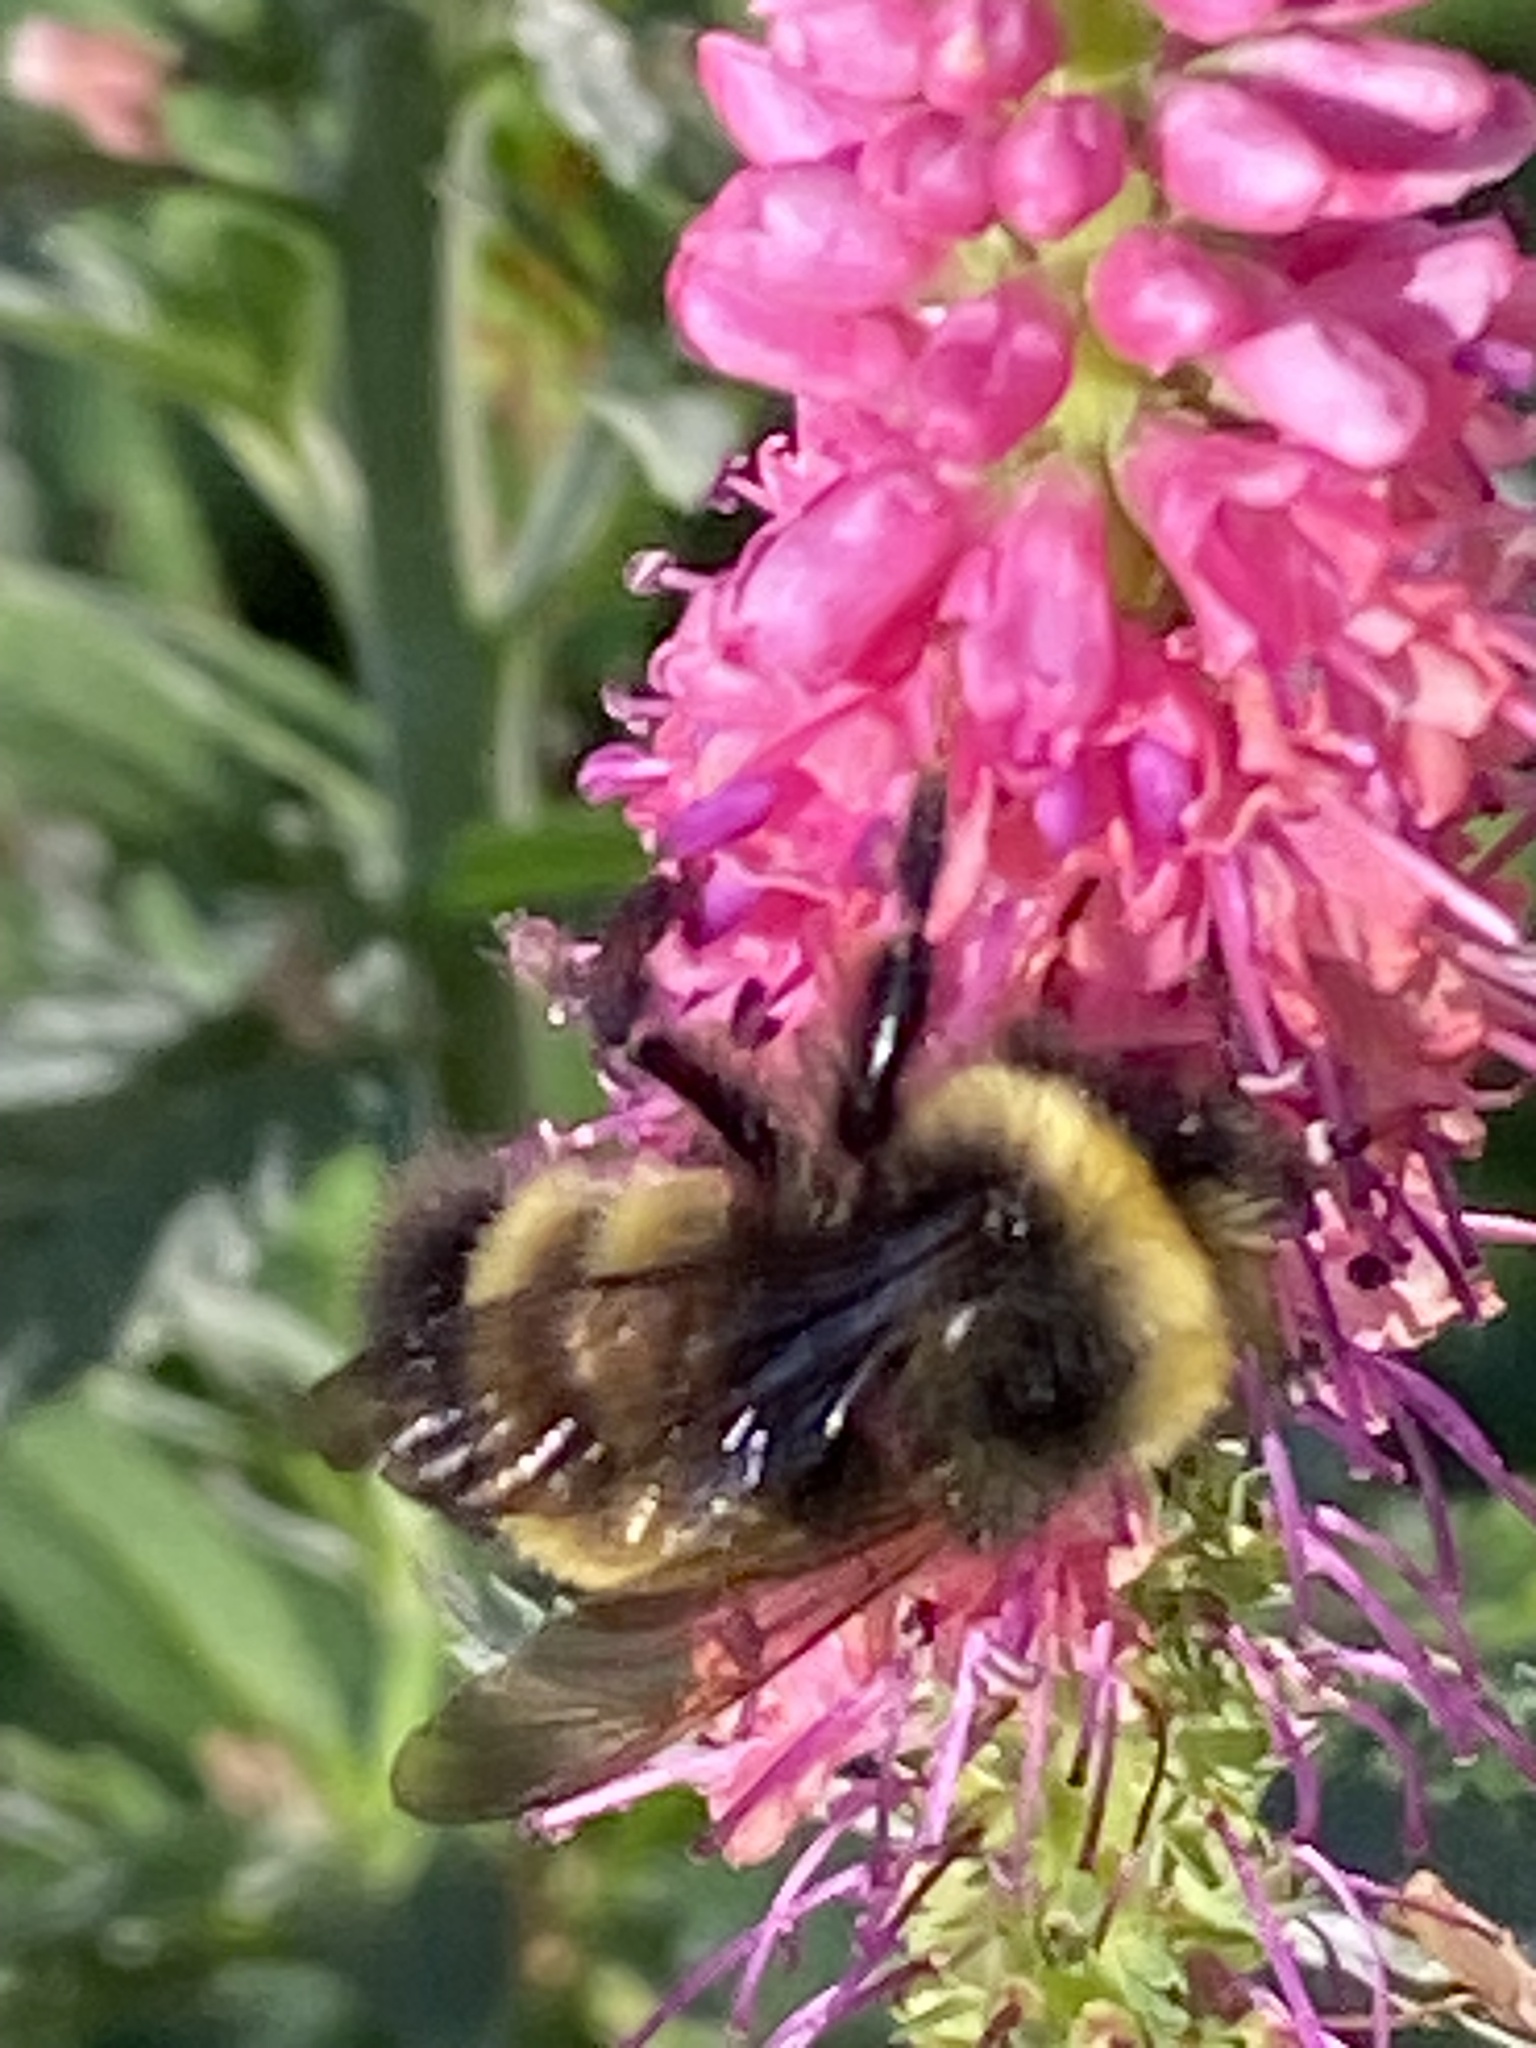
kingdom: Animalia
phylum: Arthropoda
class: Insecta
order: Hymenoptera
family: Apidae
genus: Bombus
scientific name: Bombus terricola
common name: Yellow-banded bumble bee
